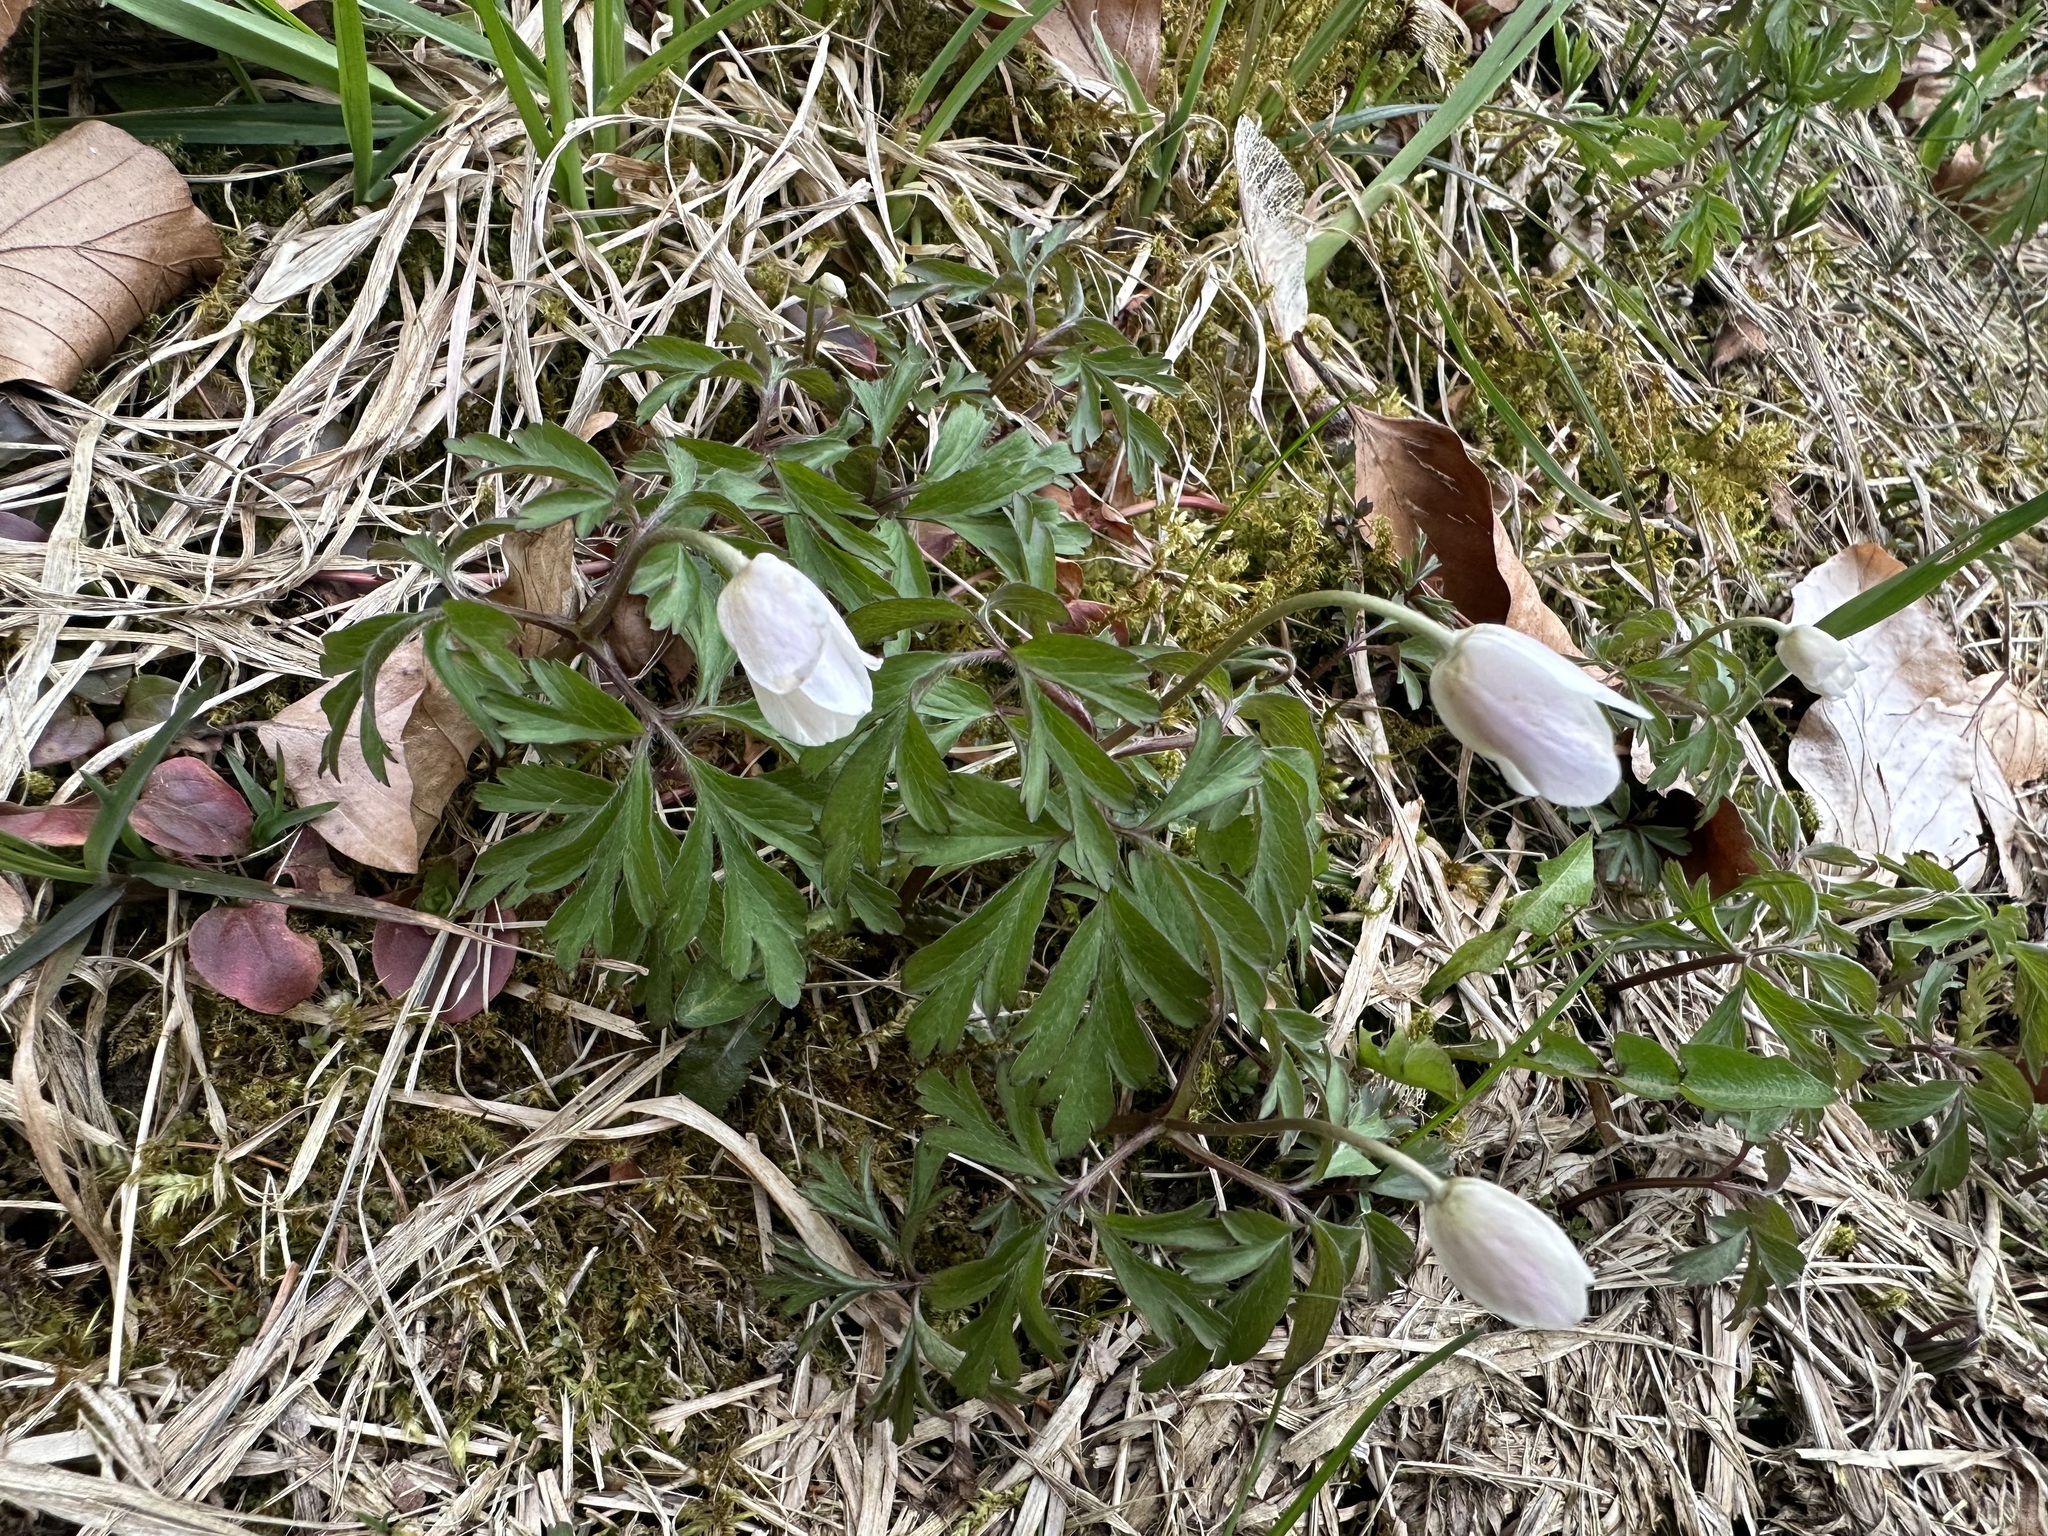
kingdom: Plantae
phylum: Tracheophyta
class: Magnoliopsida
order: Ranunculales
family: Ranunculaceae
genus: Anemone
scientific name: Anemone nemorosa
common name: Wood anemone
